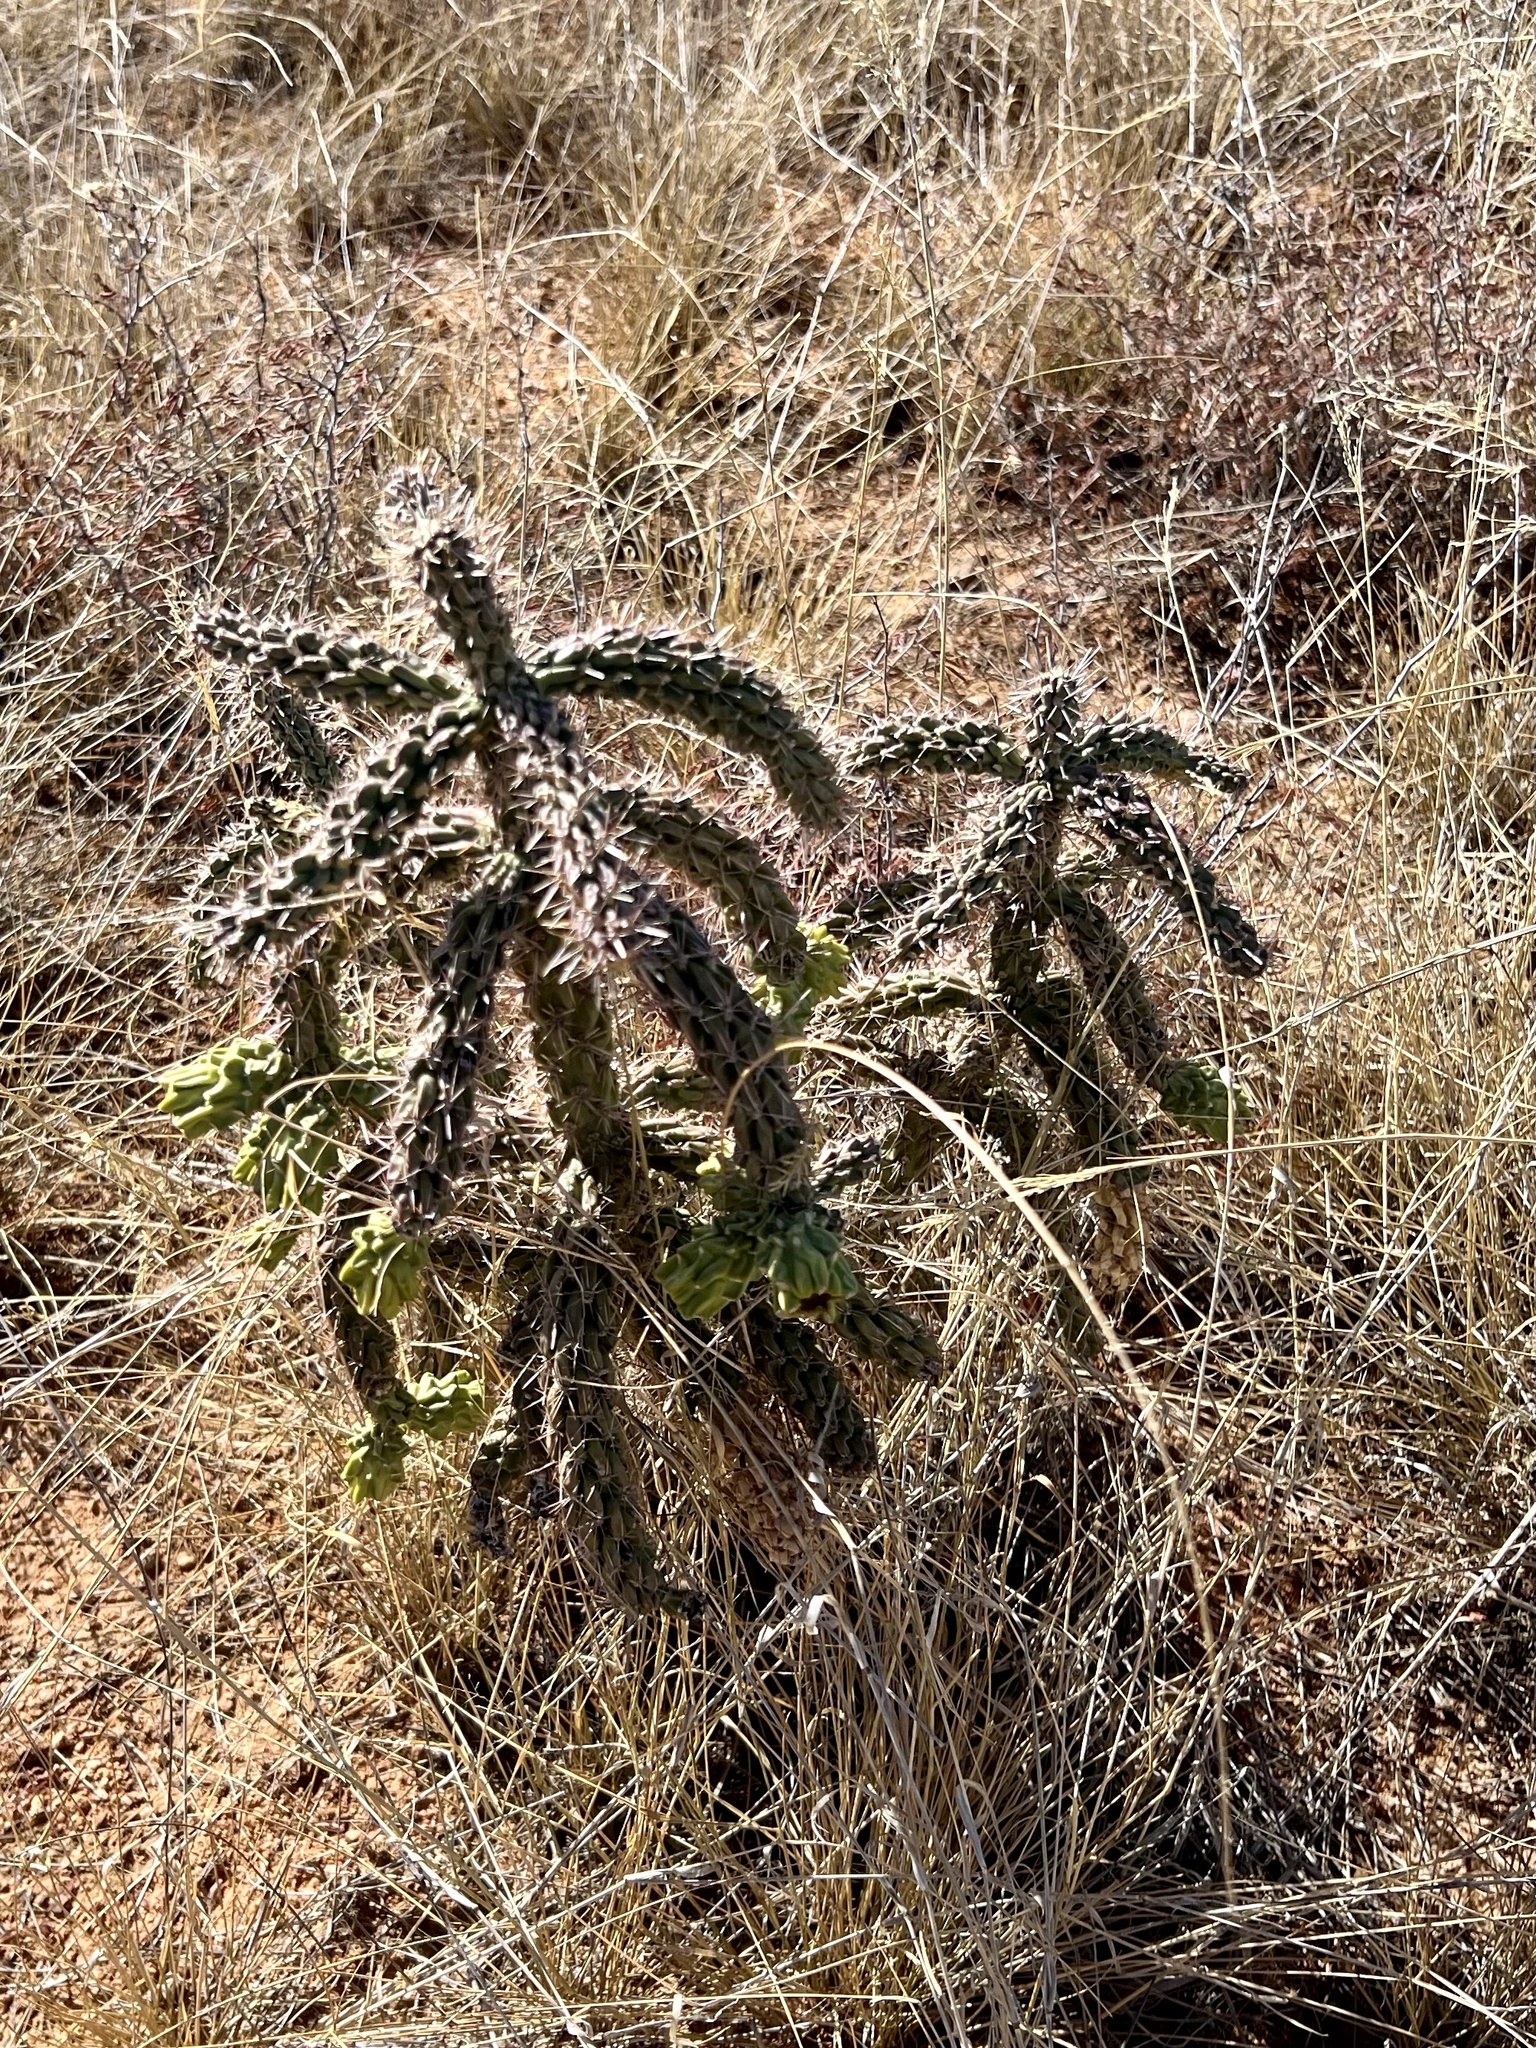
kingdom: Plantae
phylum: Tracheophyta
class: Magnoliopsida
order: Caryophyllales
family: Cactaceae
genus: Cylindropuntia
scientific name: Cylindropuntia imbricata
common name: Candelabrum cactus
